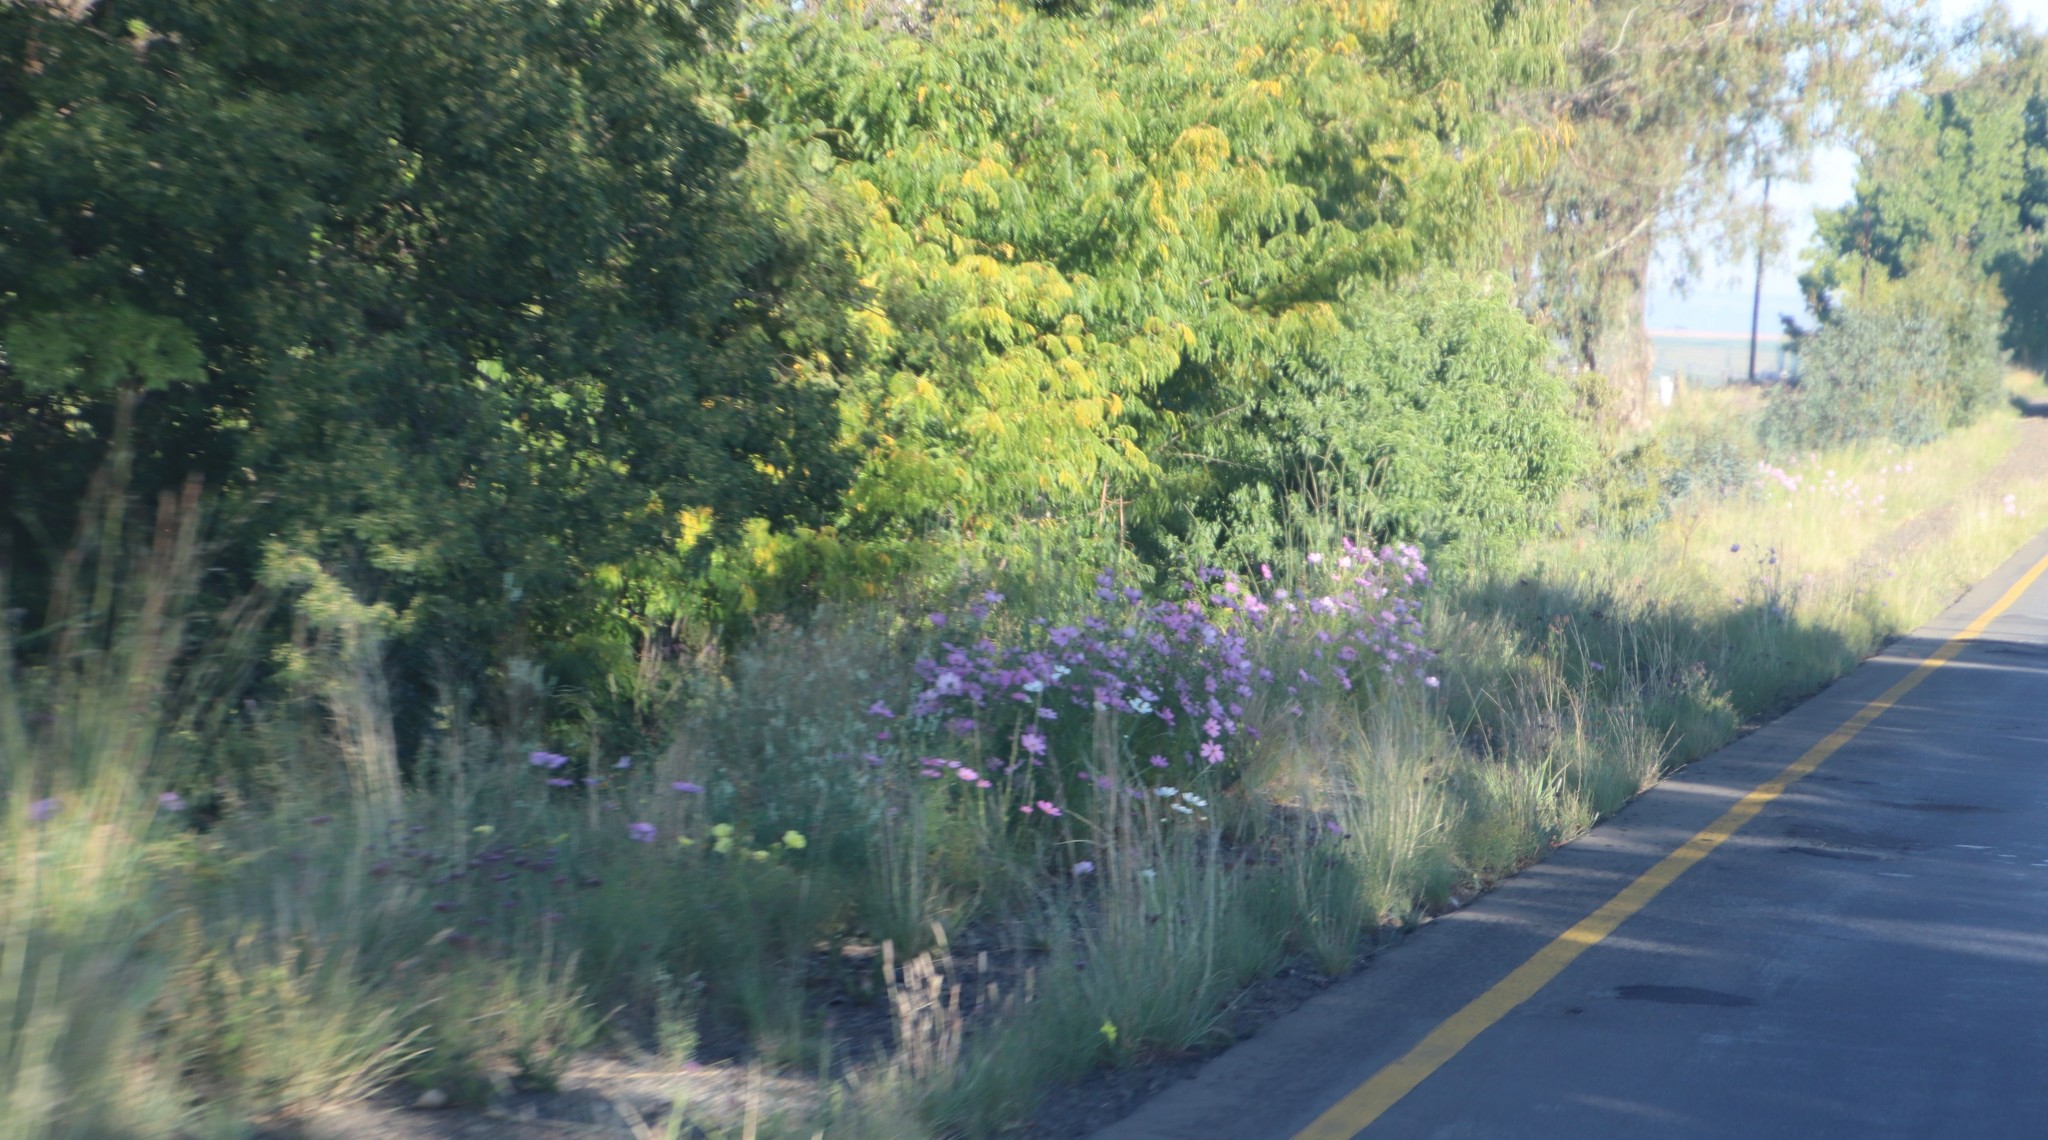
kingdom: Plantae
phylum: Tracheophyta
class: Magnoliopsida
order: Asterales
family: Asteraceae
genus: Cosmos
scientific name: Cosmos bipinnatus
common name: Garden cosmos
